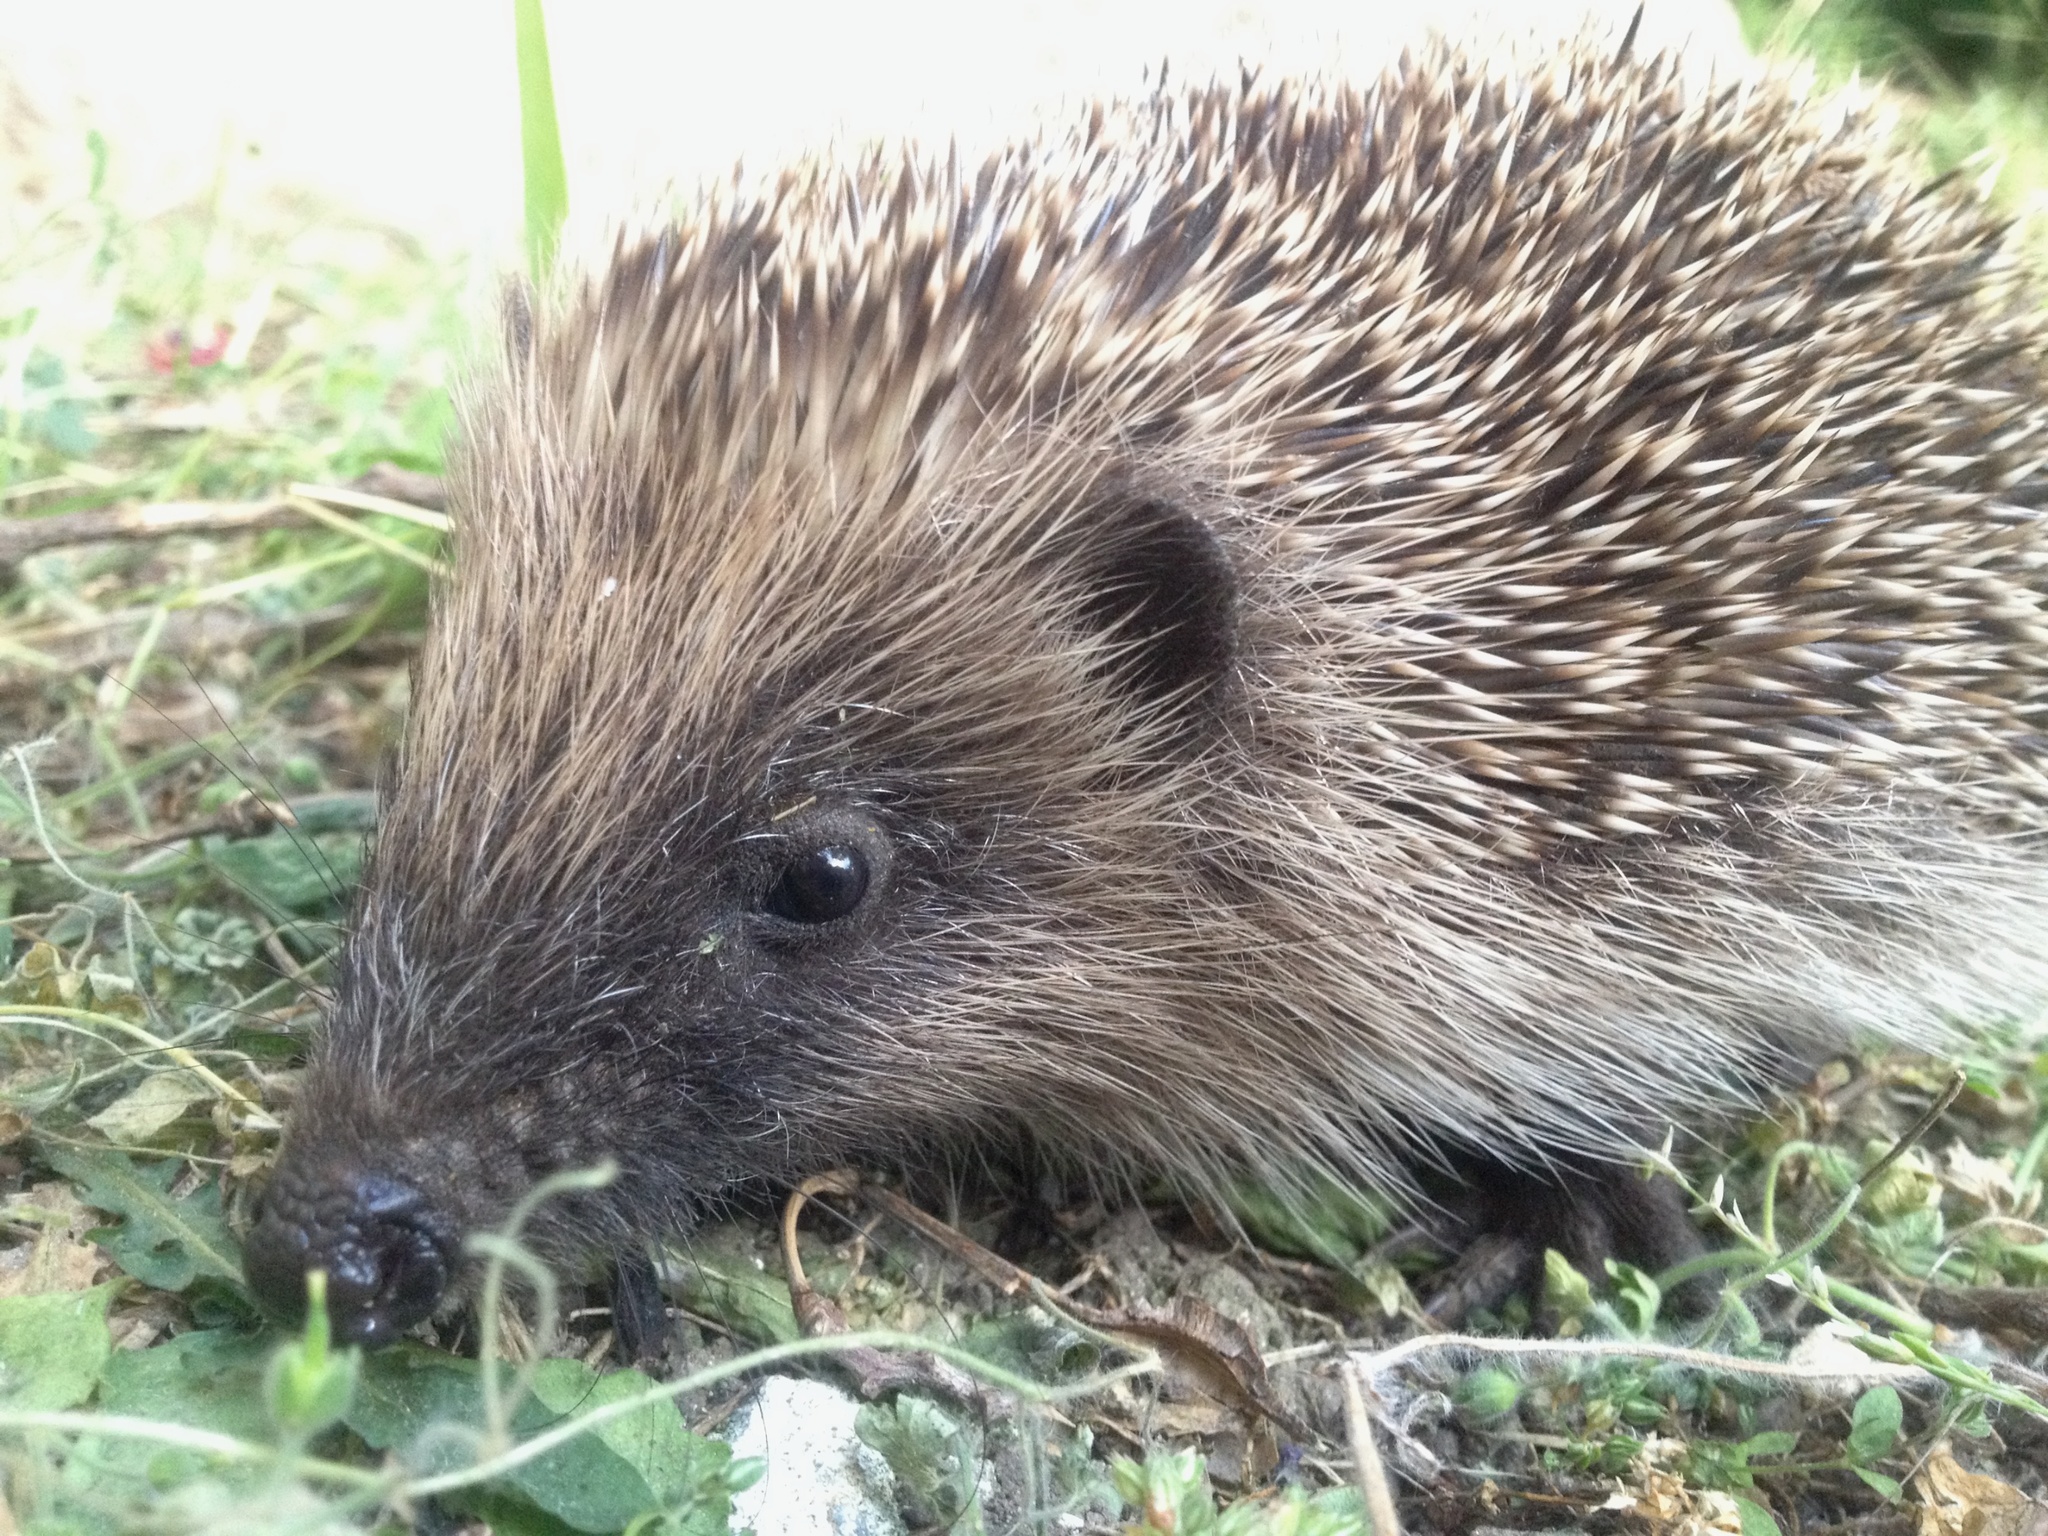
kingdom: Animalia
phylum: Chordata
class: Mammalia
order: Erinaceomorpha
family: Erinaceidae
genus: Erinaceus
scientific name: Erinaceus europaeus
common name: West european hedgehog
